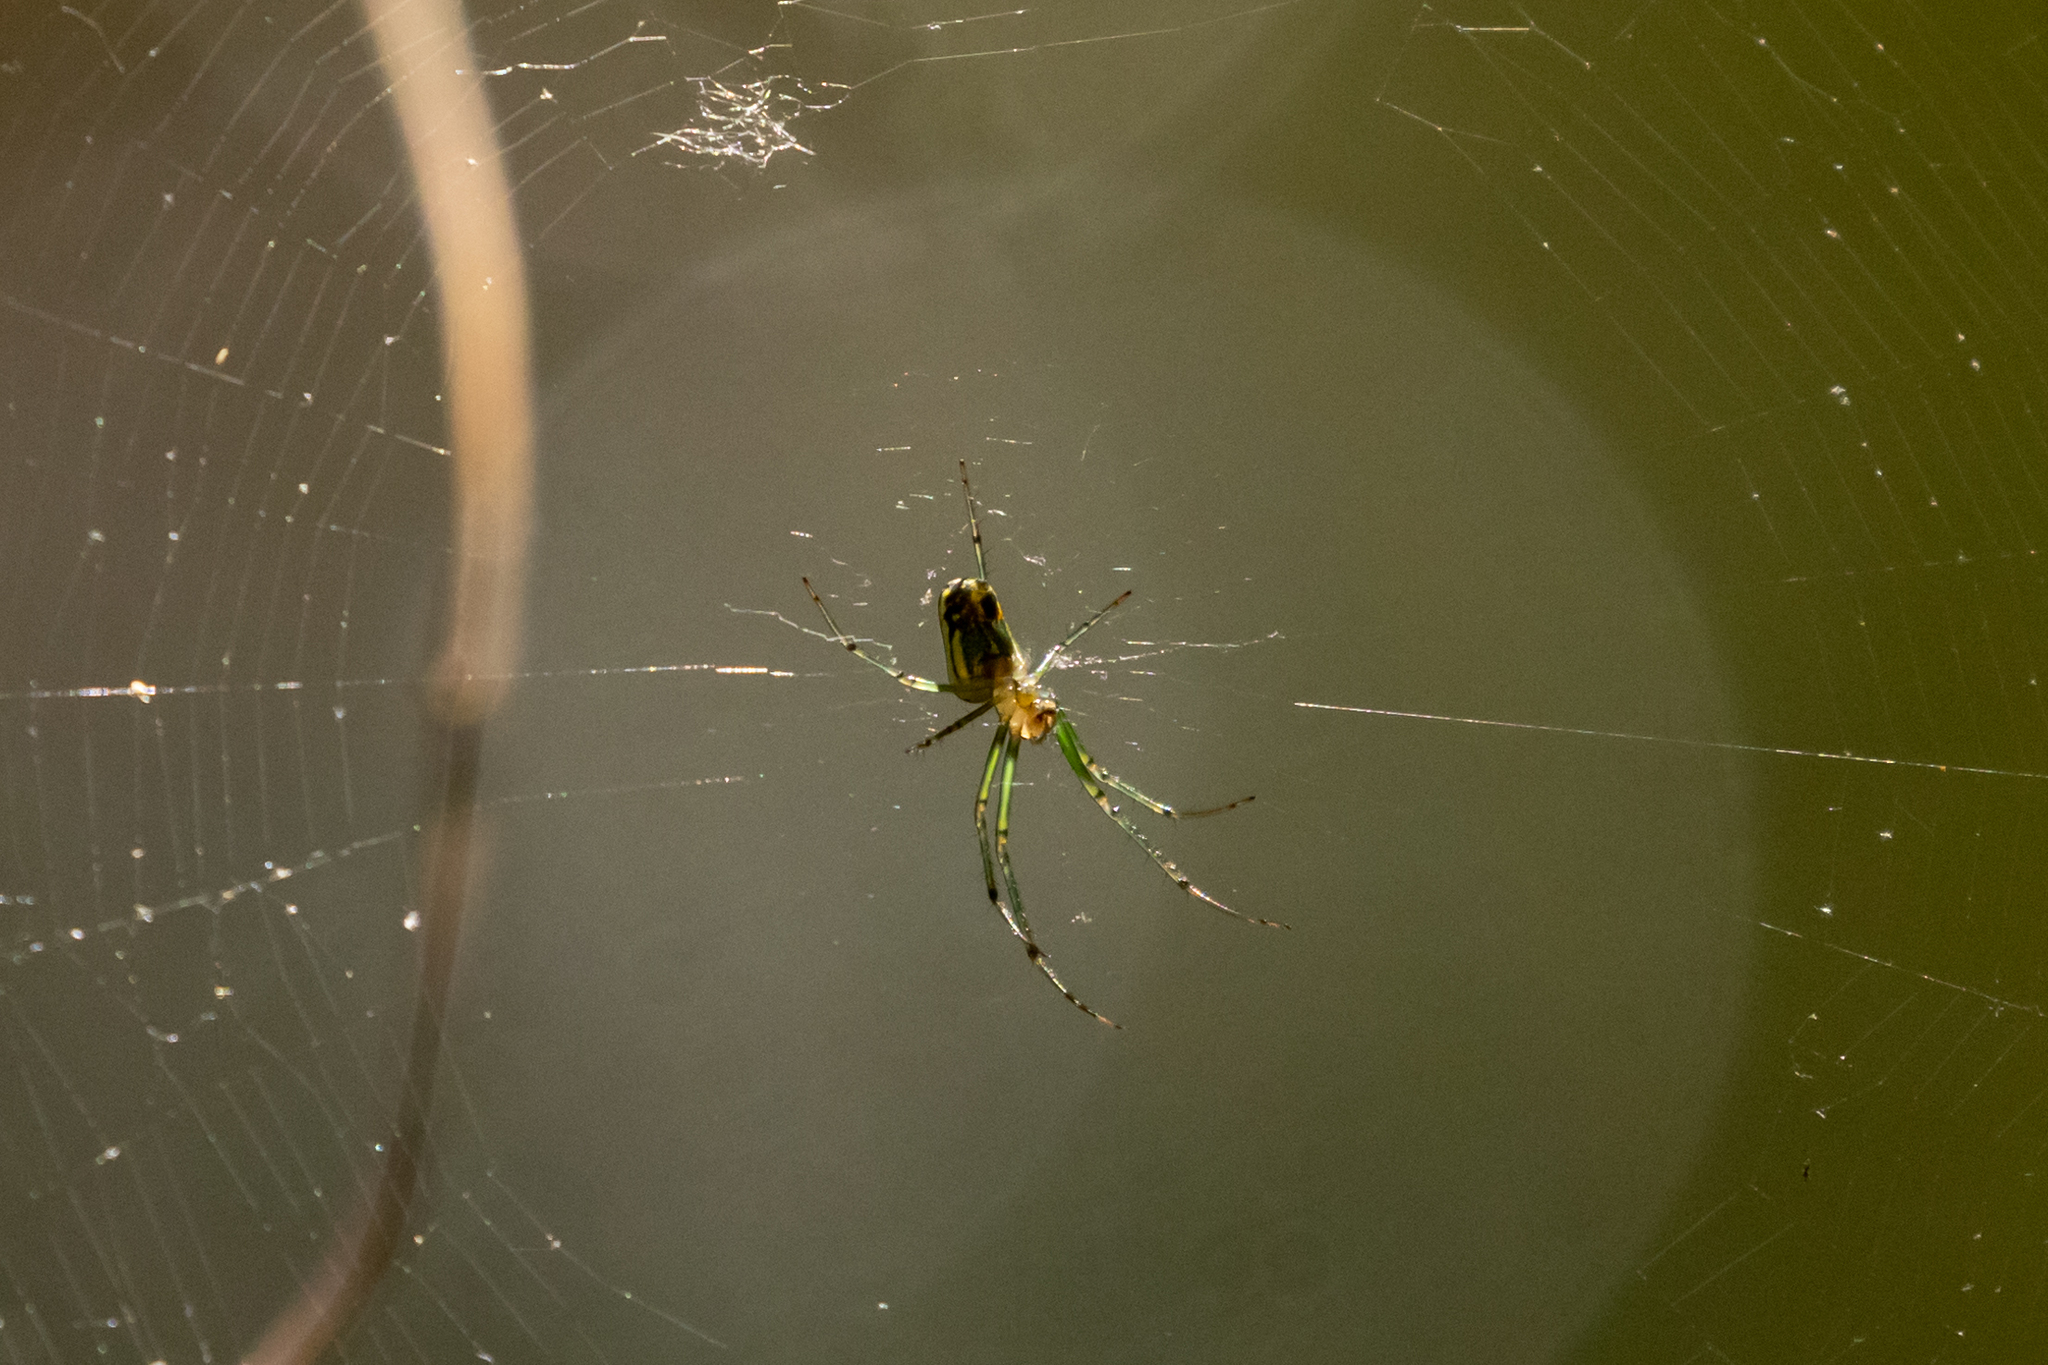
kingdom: Animalia
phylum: Arthropoda
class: Arachnida
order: Araneae
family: Tetragnathidae
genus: Leucauge
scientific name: Leucauge venusta
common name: Longjawed orb weavers
